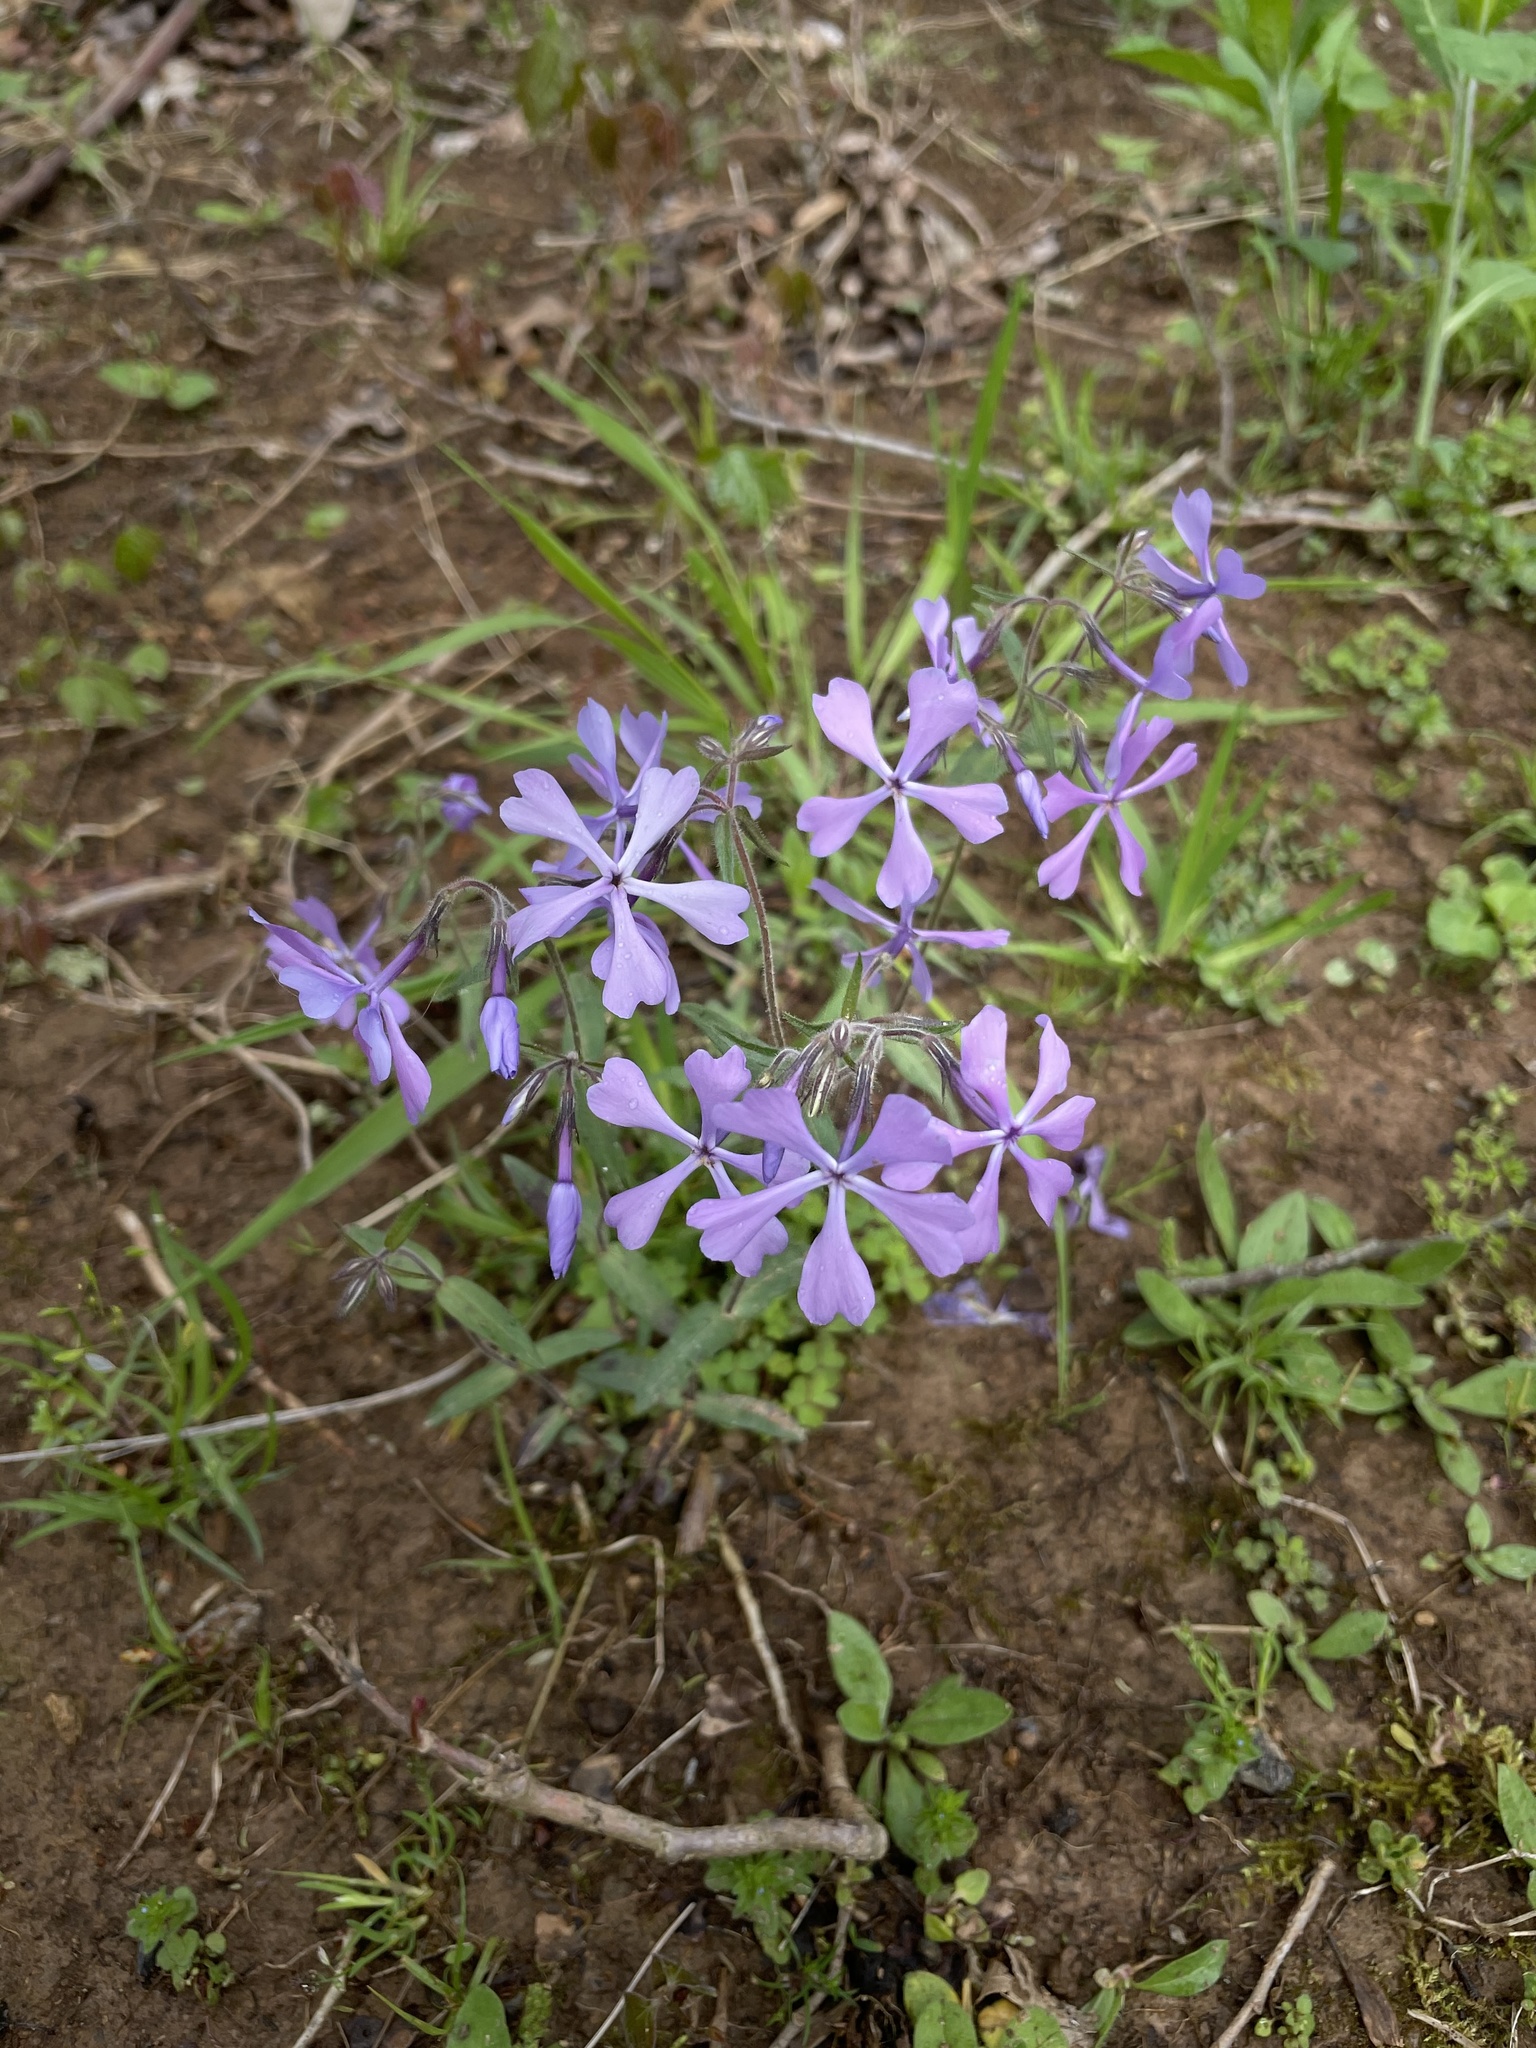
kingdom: Plantae
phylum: Tracheophyta
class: Magnoliopsida
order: Ericales
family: Polemoniaceae
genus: Phlox
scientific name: Phlox divaricata
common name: Blue phlox
